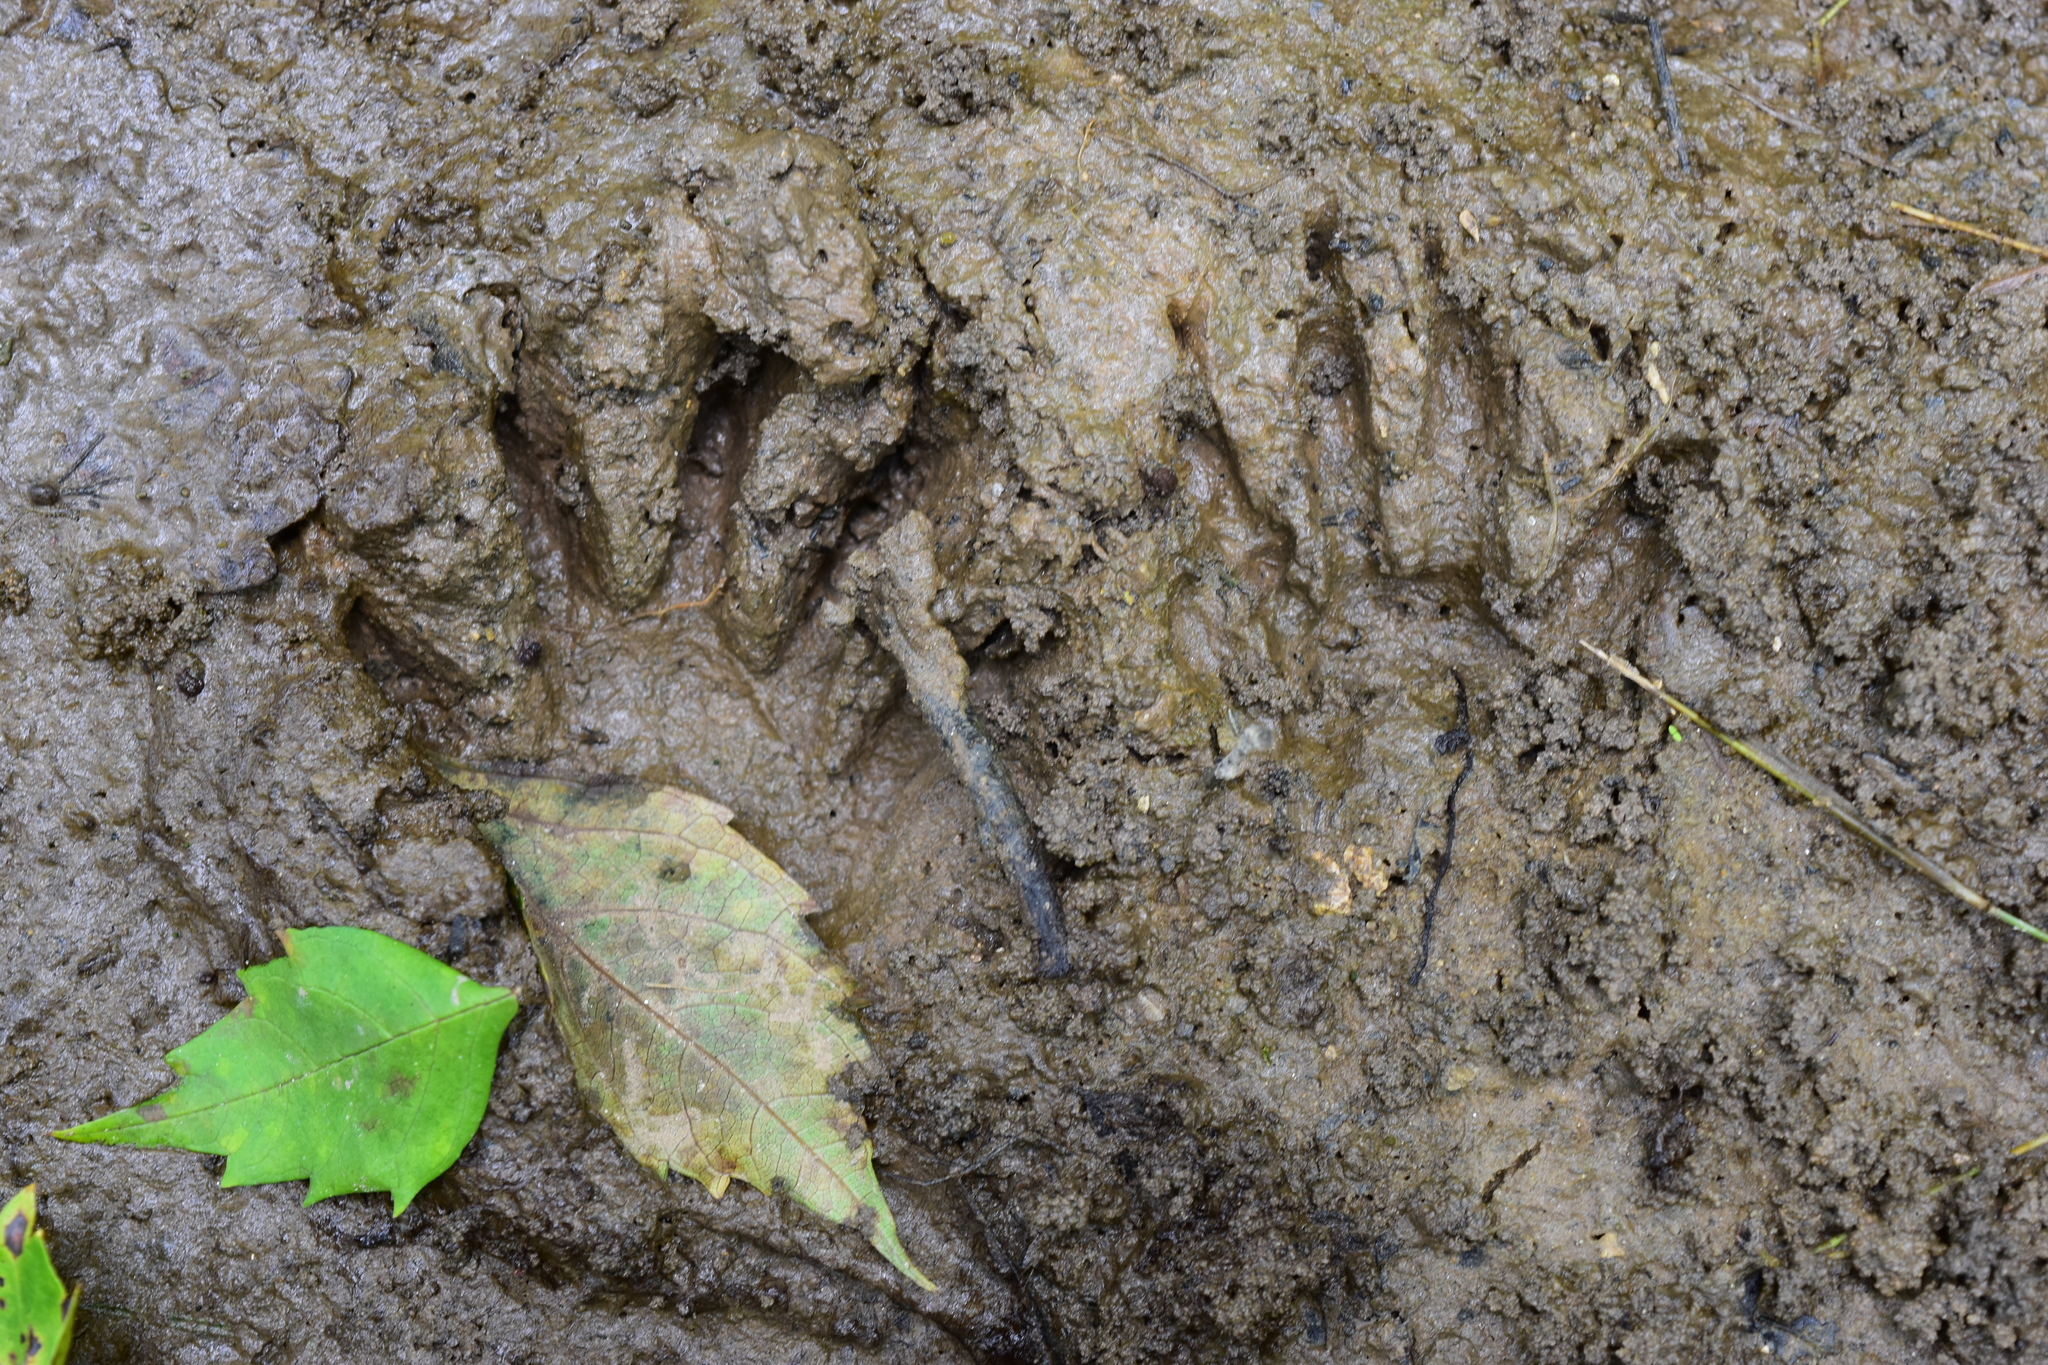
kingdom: Animalia
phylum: Chordata
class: Mammalia
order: Carnivora
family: Procyonidae
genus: Procyon
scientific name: Procyon lotor
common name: Raccoon
